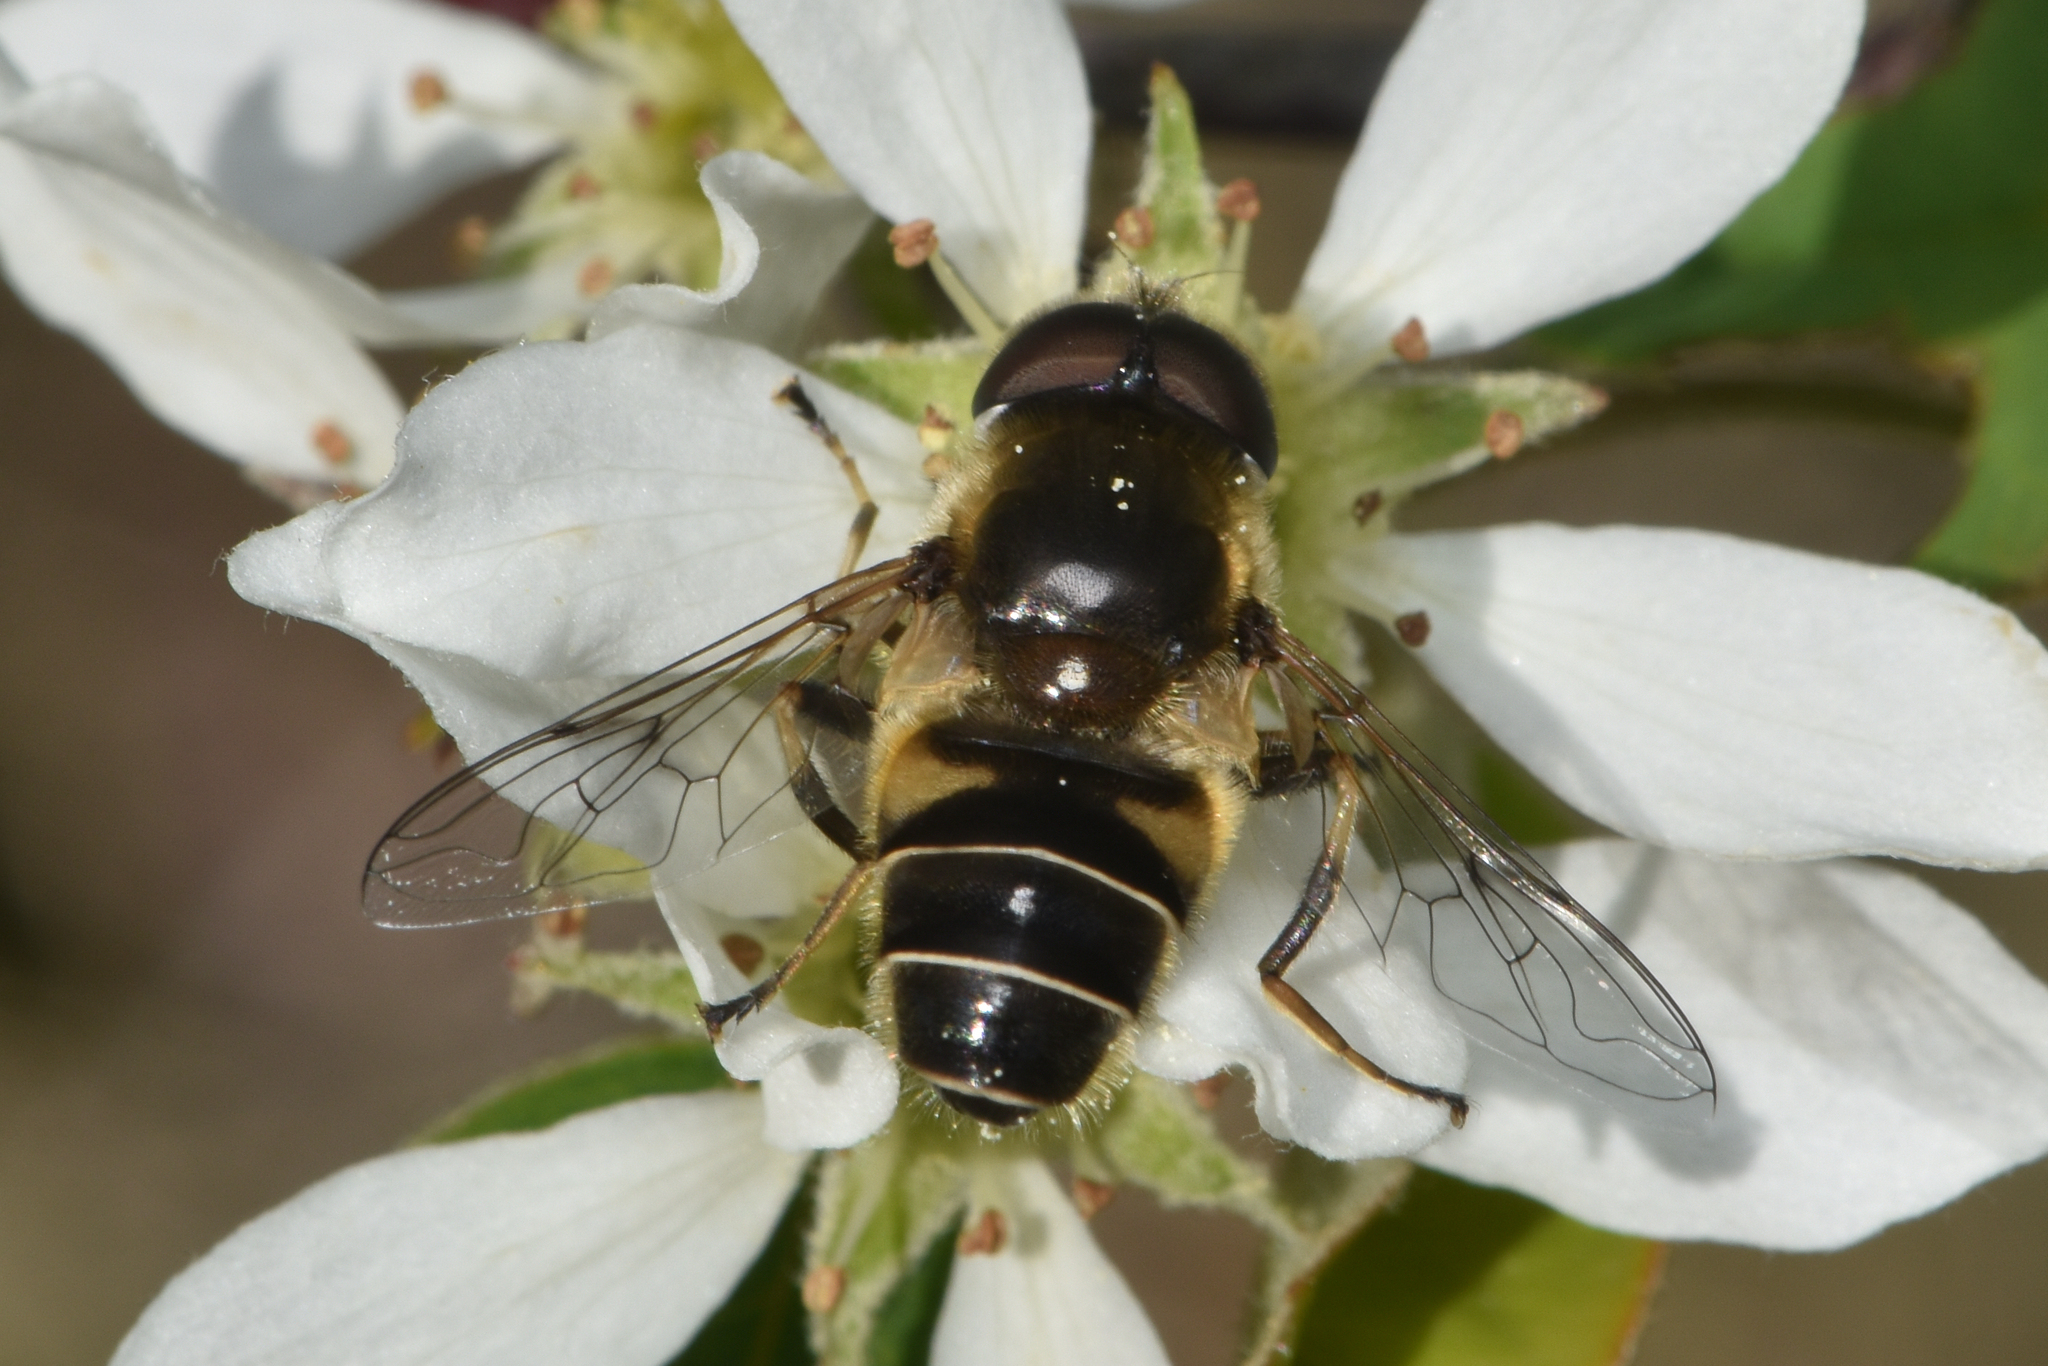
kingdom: Animalia
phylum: Arthropoda
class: Insecta
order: Diptera
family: Syrphidae
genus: Eristalis
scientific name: Eristalis hirta
